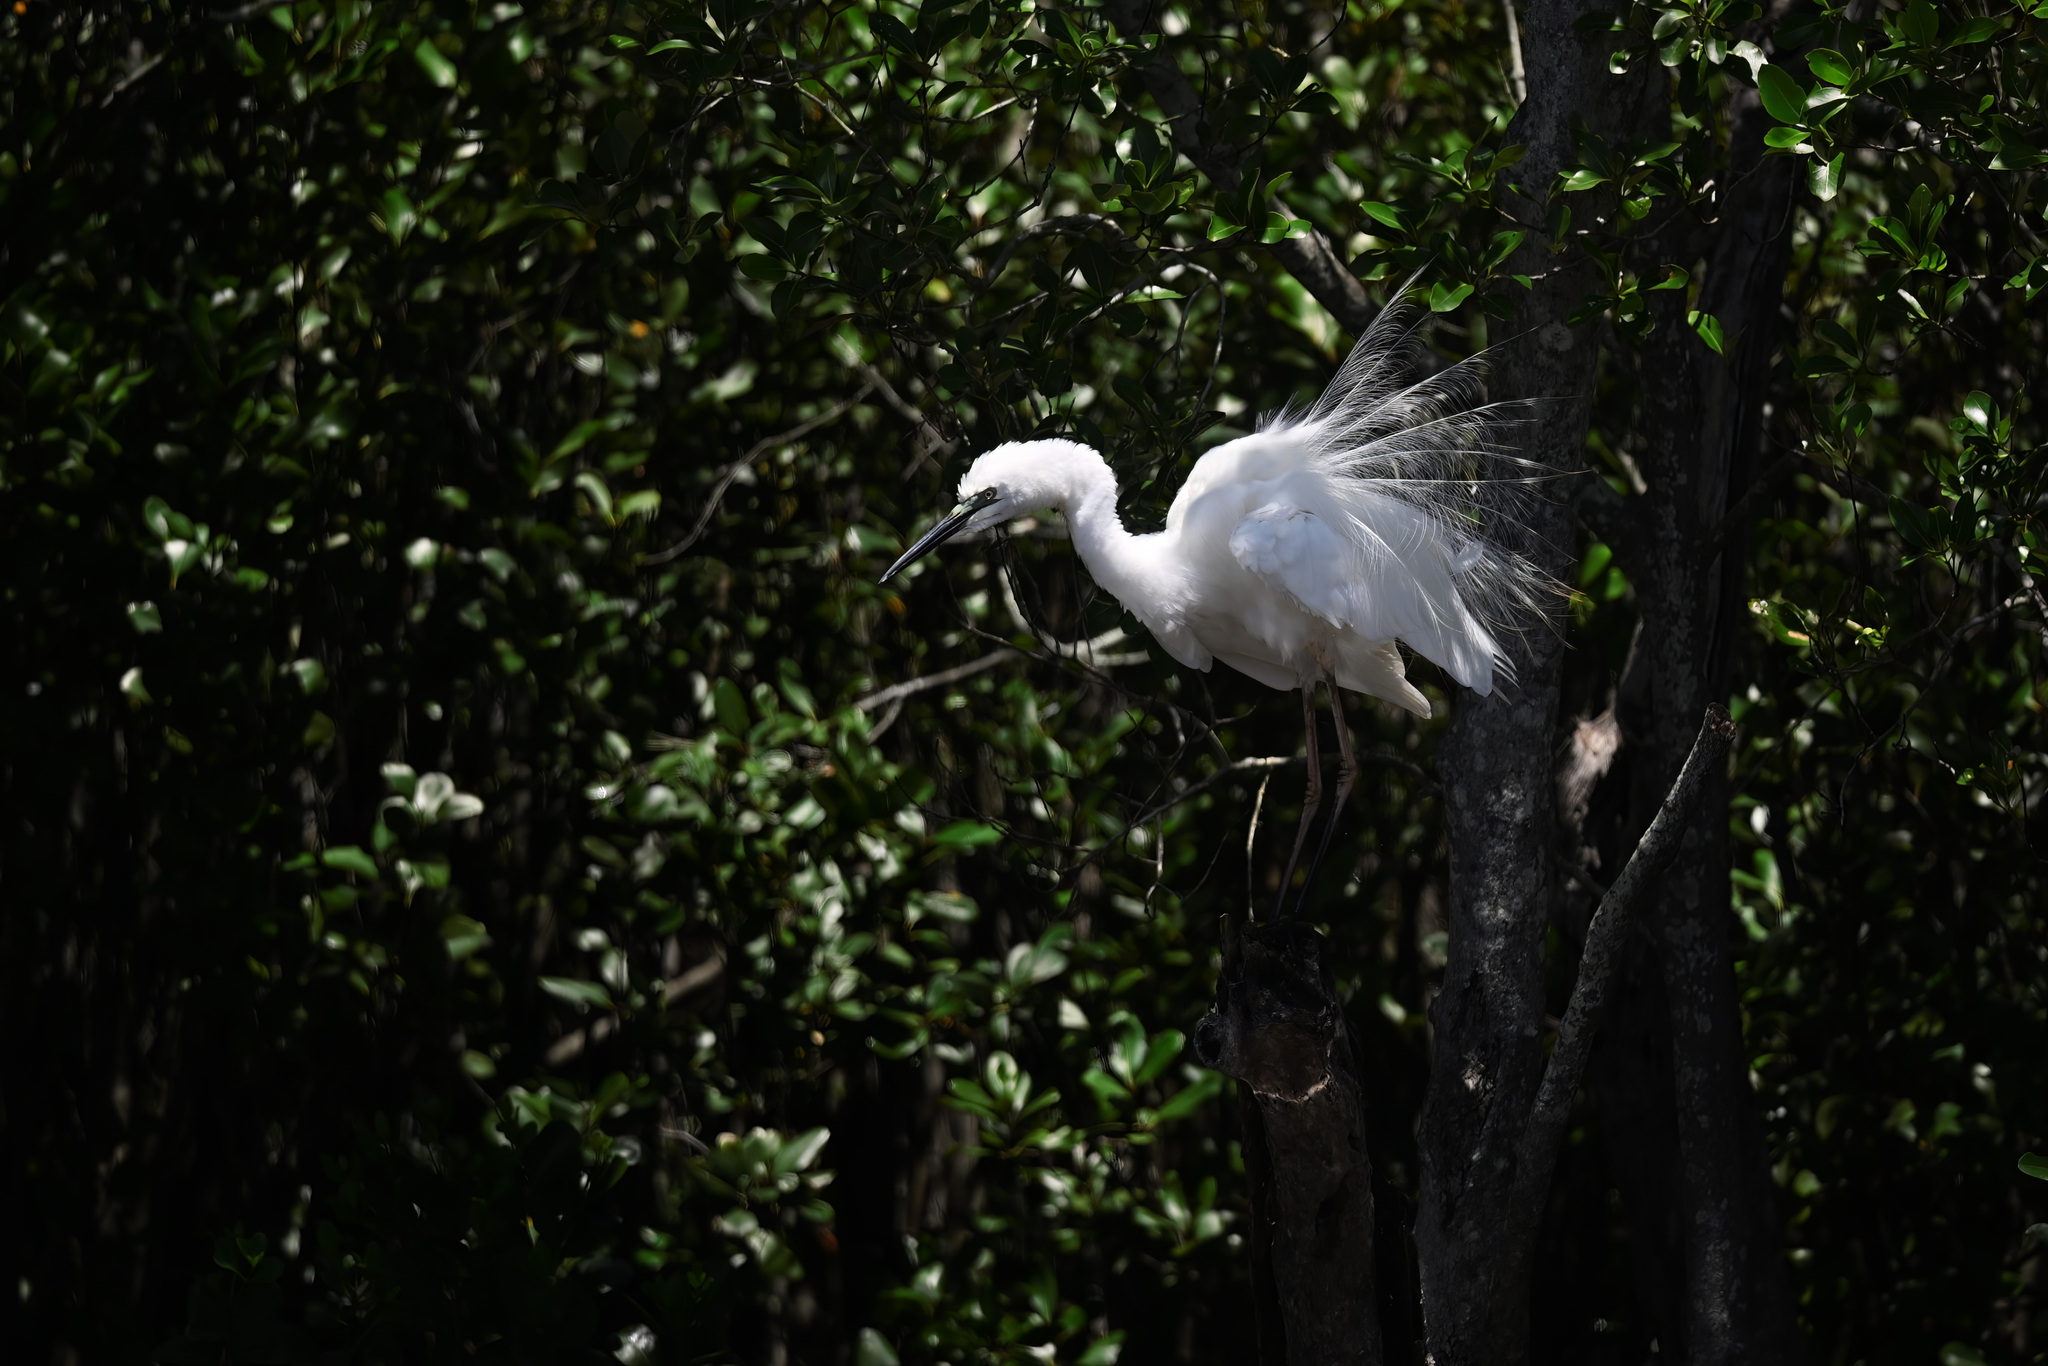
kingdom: Animalia
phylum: Chordata
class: Aves
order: Pelecaniformes
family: Ardeidae
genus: Ardea
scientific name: Ardea alba
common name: Great egret
